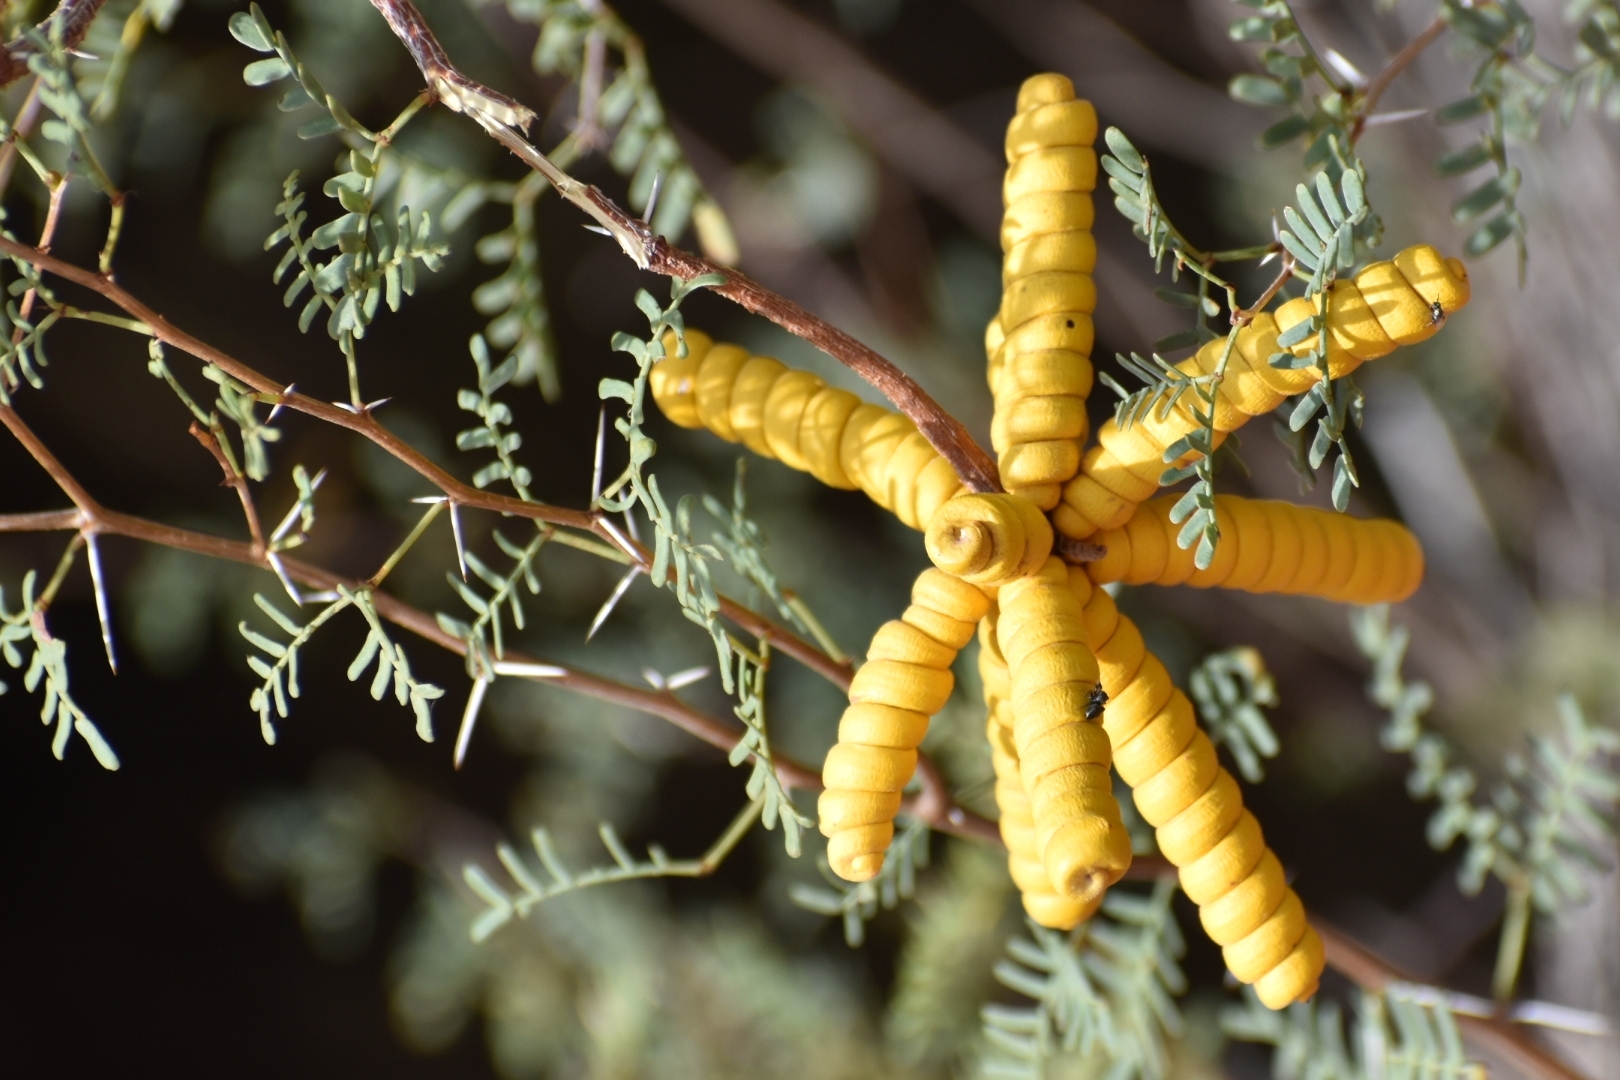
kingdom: Plantae
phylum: Tracheophyta
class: Magnoliopsida
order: Fabales
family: Fabaceae
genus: Prosopis
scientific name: Prosopis strombulifera
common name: Creeping mesquite
